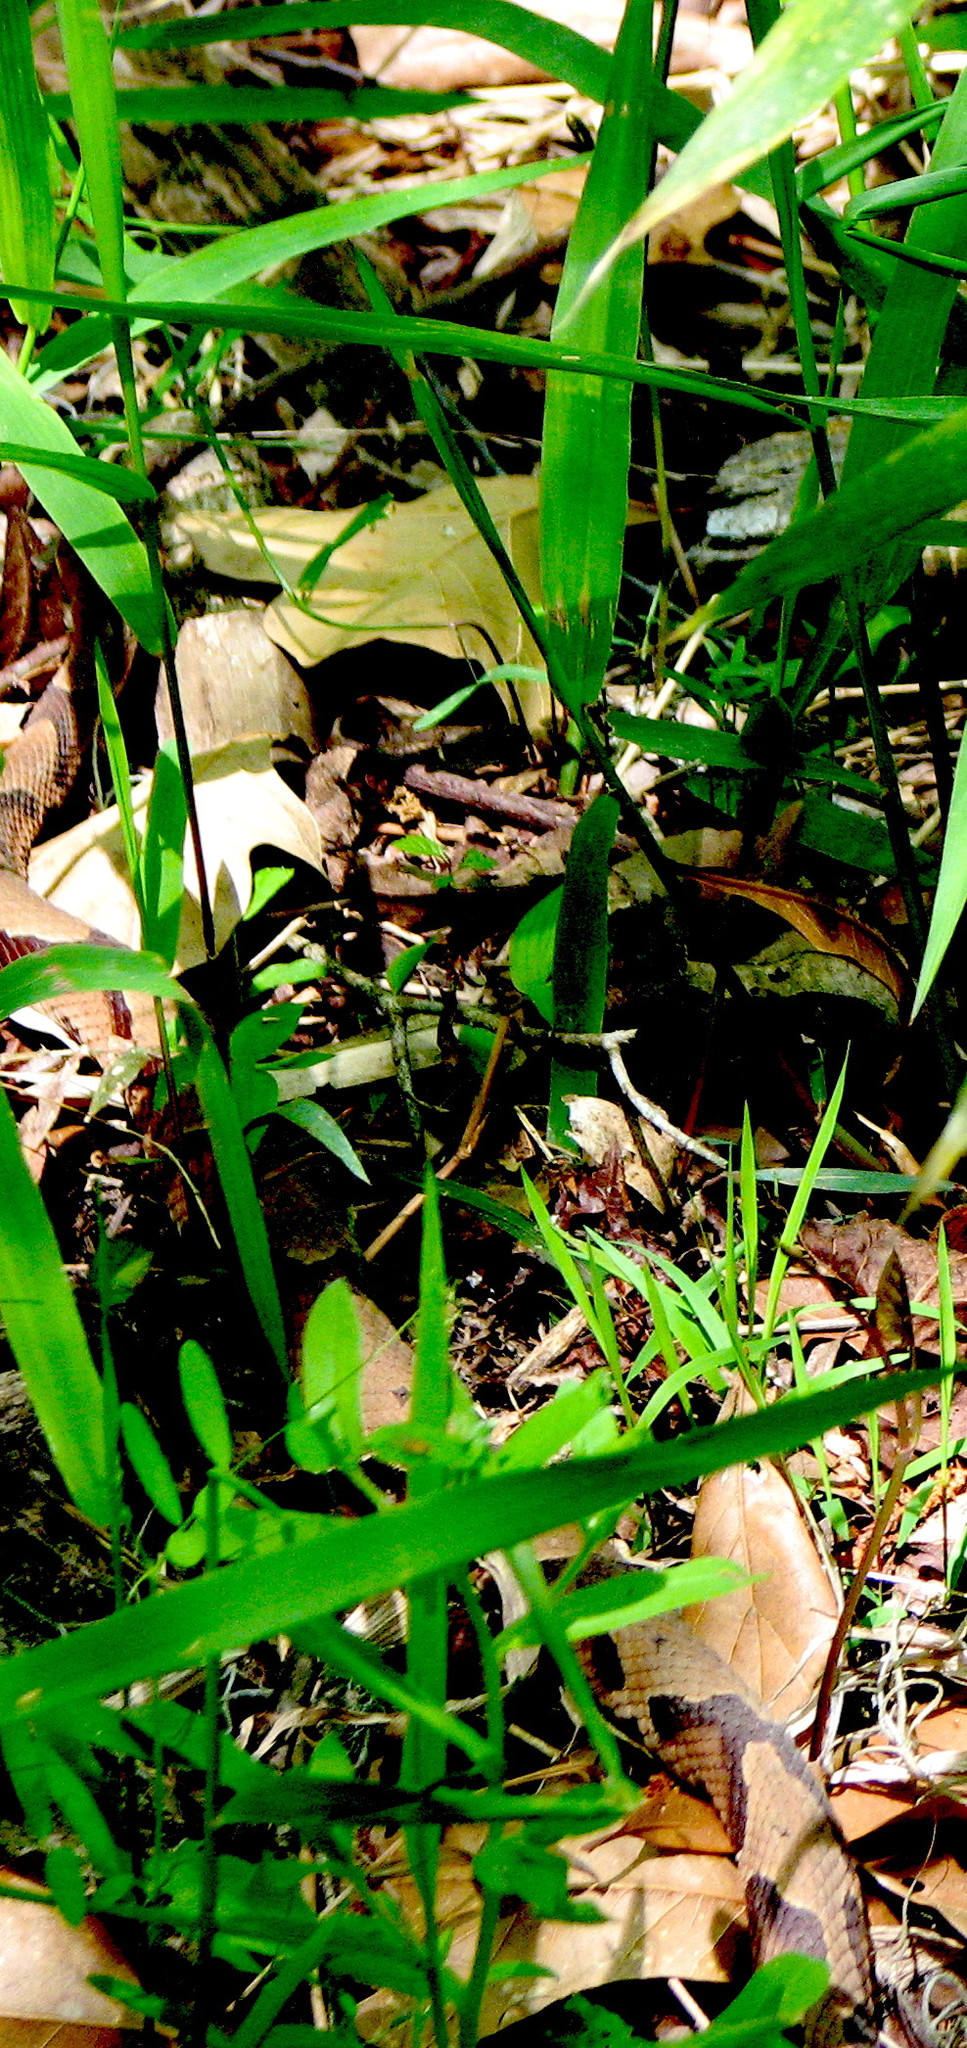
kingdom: Animalia
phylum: Chordata
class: Squamata
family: Viperidae
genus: Agkistrodon
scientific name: Agkistrodon contortrix
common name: Northern copperhead
